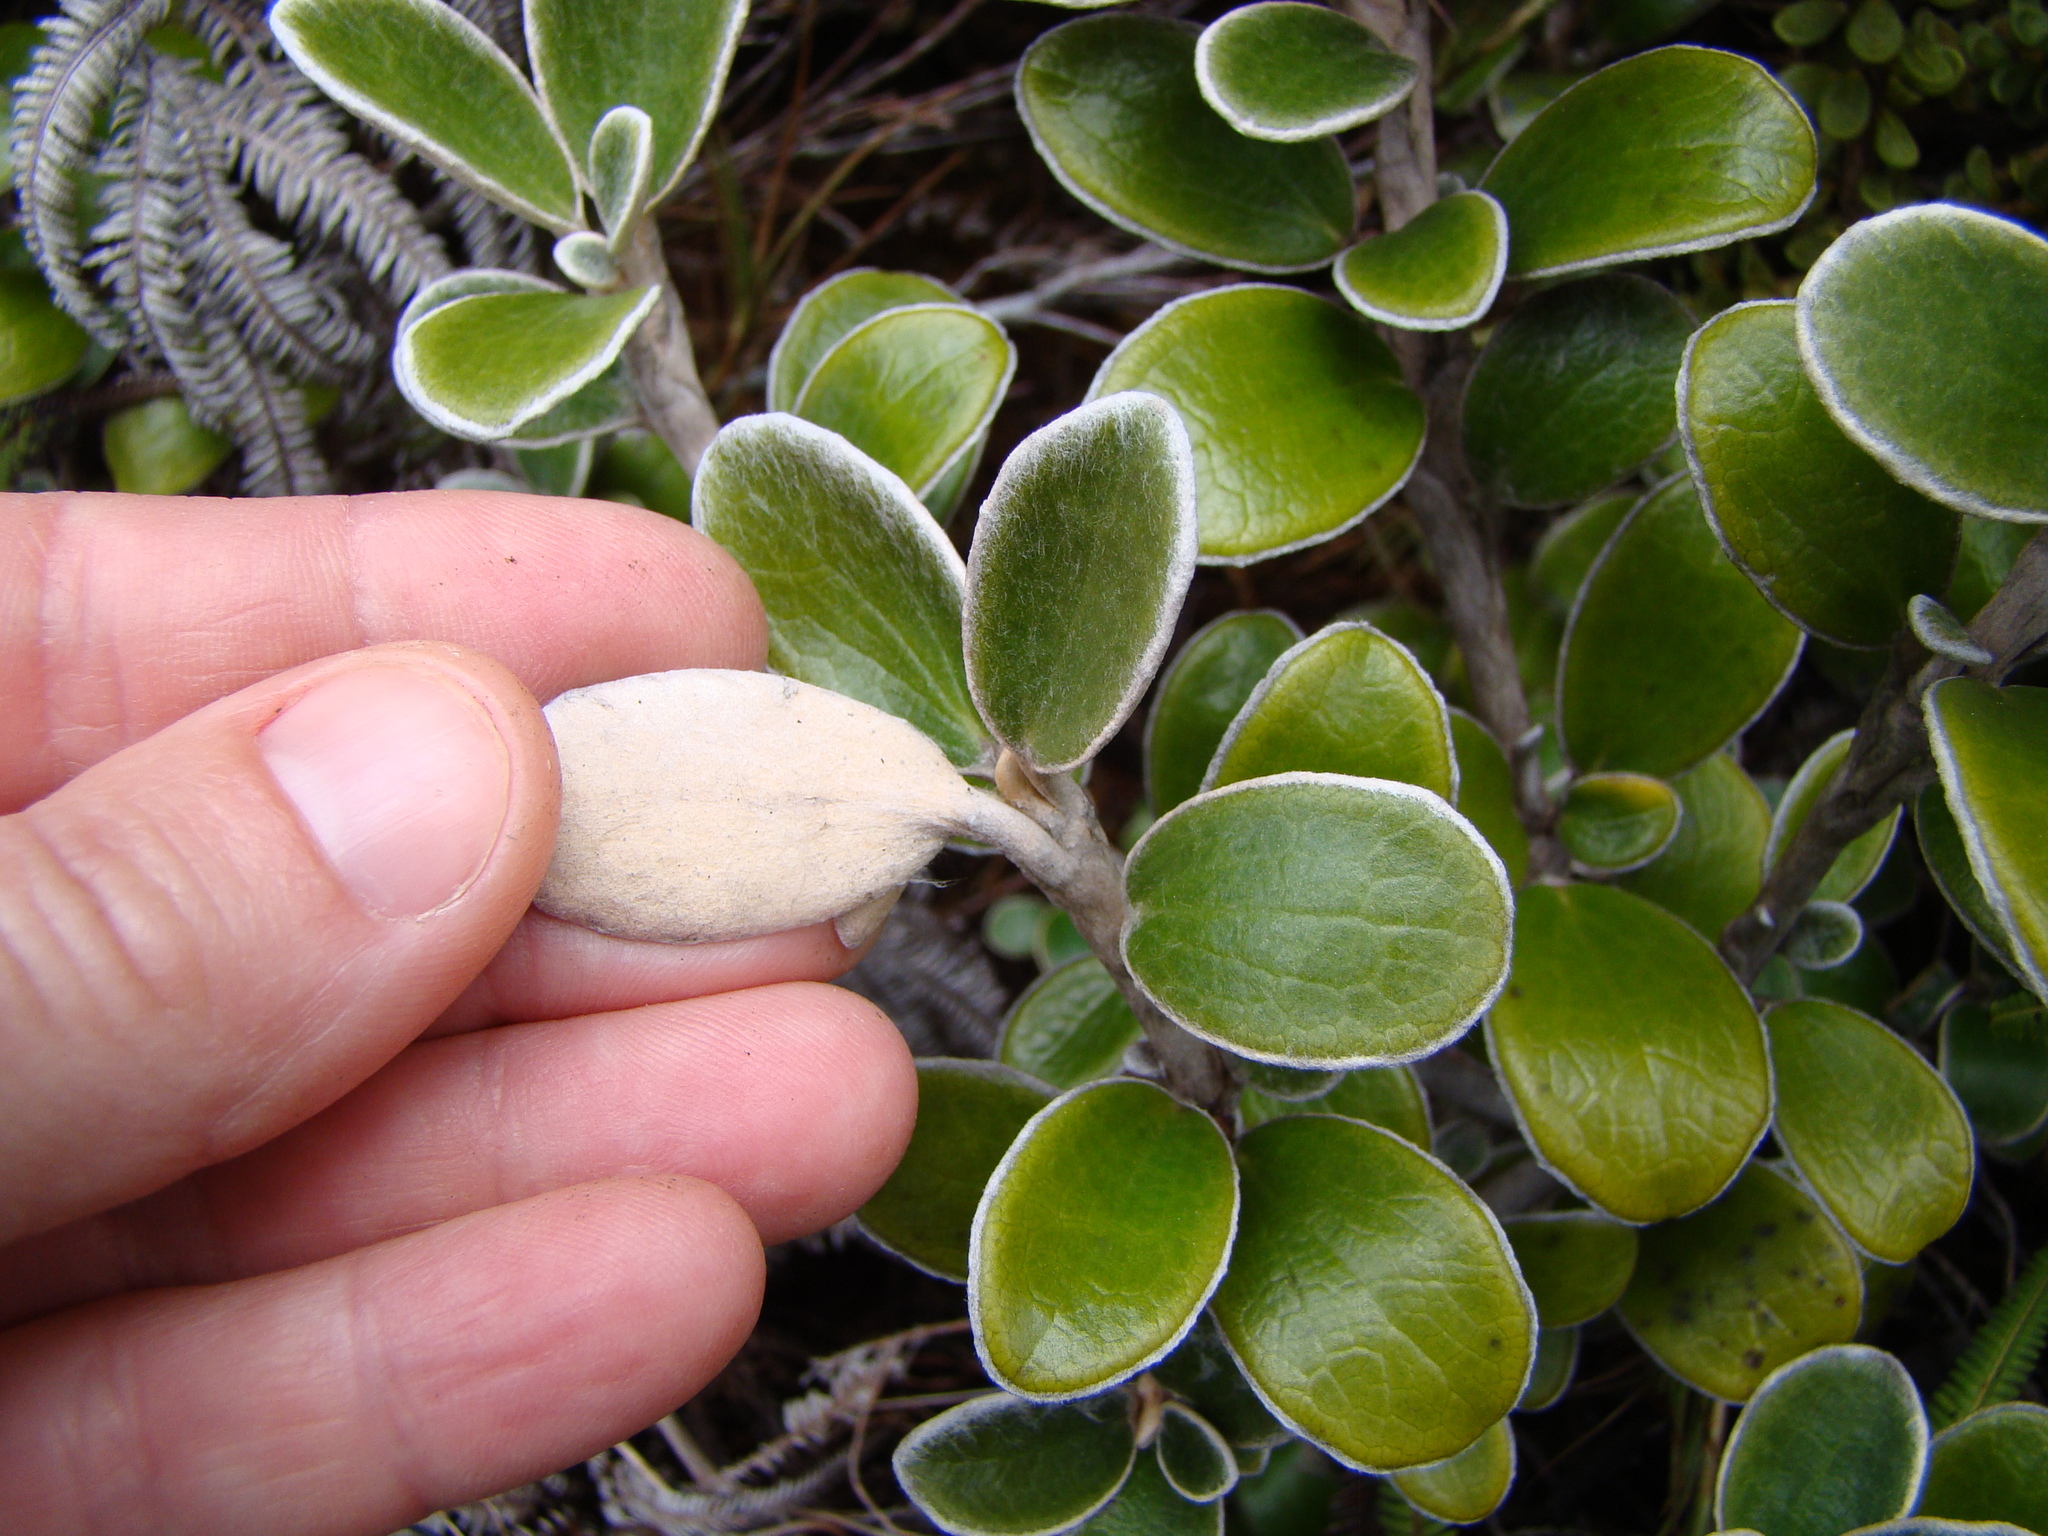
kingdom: Plantae
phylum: Tracheophyta
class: Magnoliopsida
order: Asterales
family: Asteraceae
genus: Brachyglottis
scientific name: Brachyglottis bidwillii
